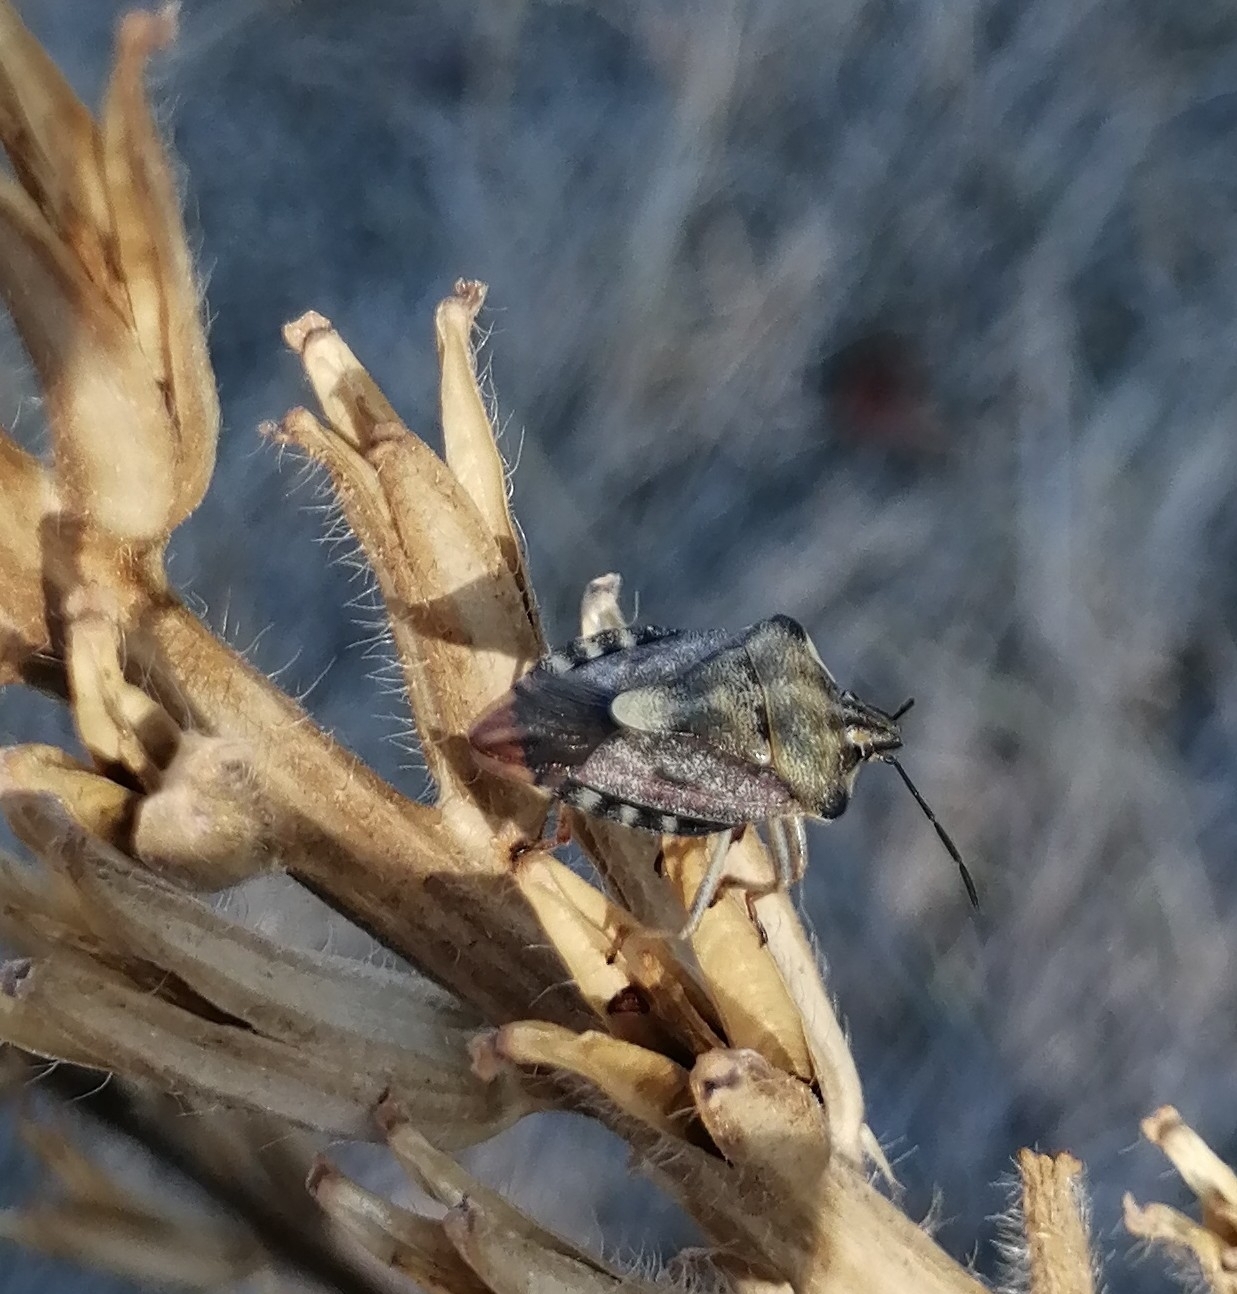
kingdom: Animalia
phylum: Arthropoda
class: Insecta
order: Hemiptera
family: Pentatomidae
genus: Carpocoris
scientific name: Carpocoris purpureipennis
